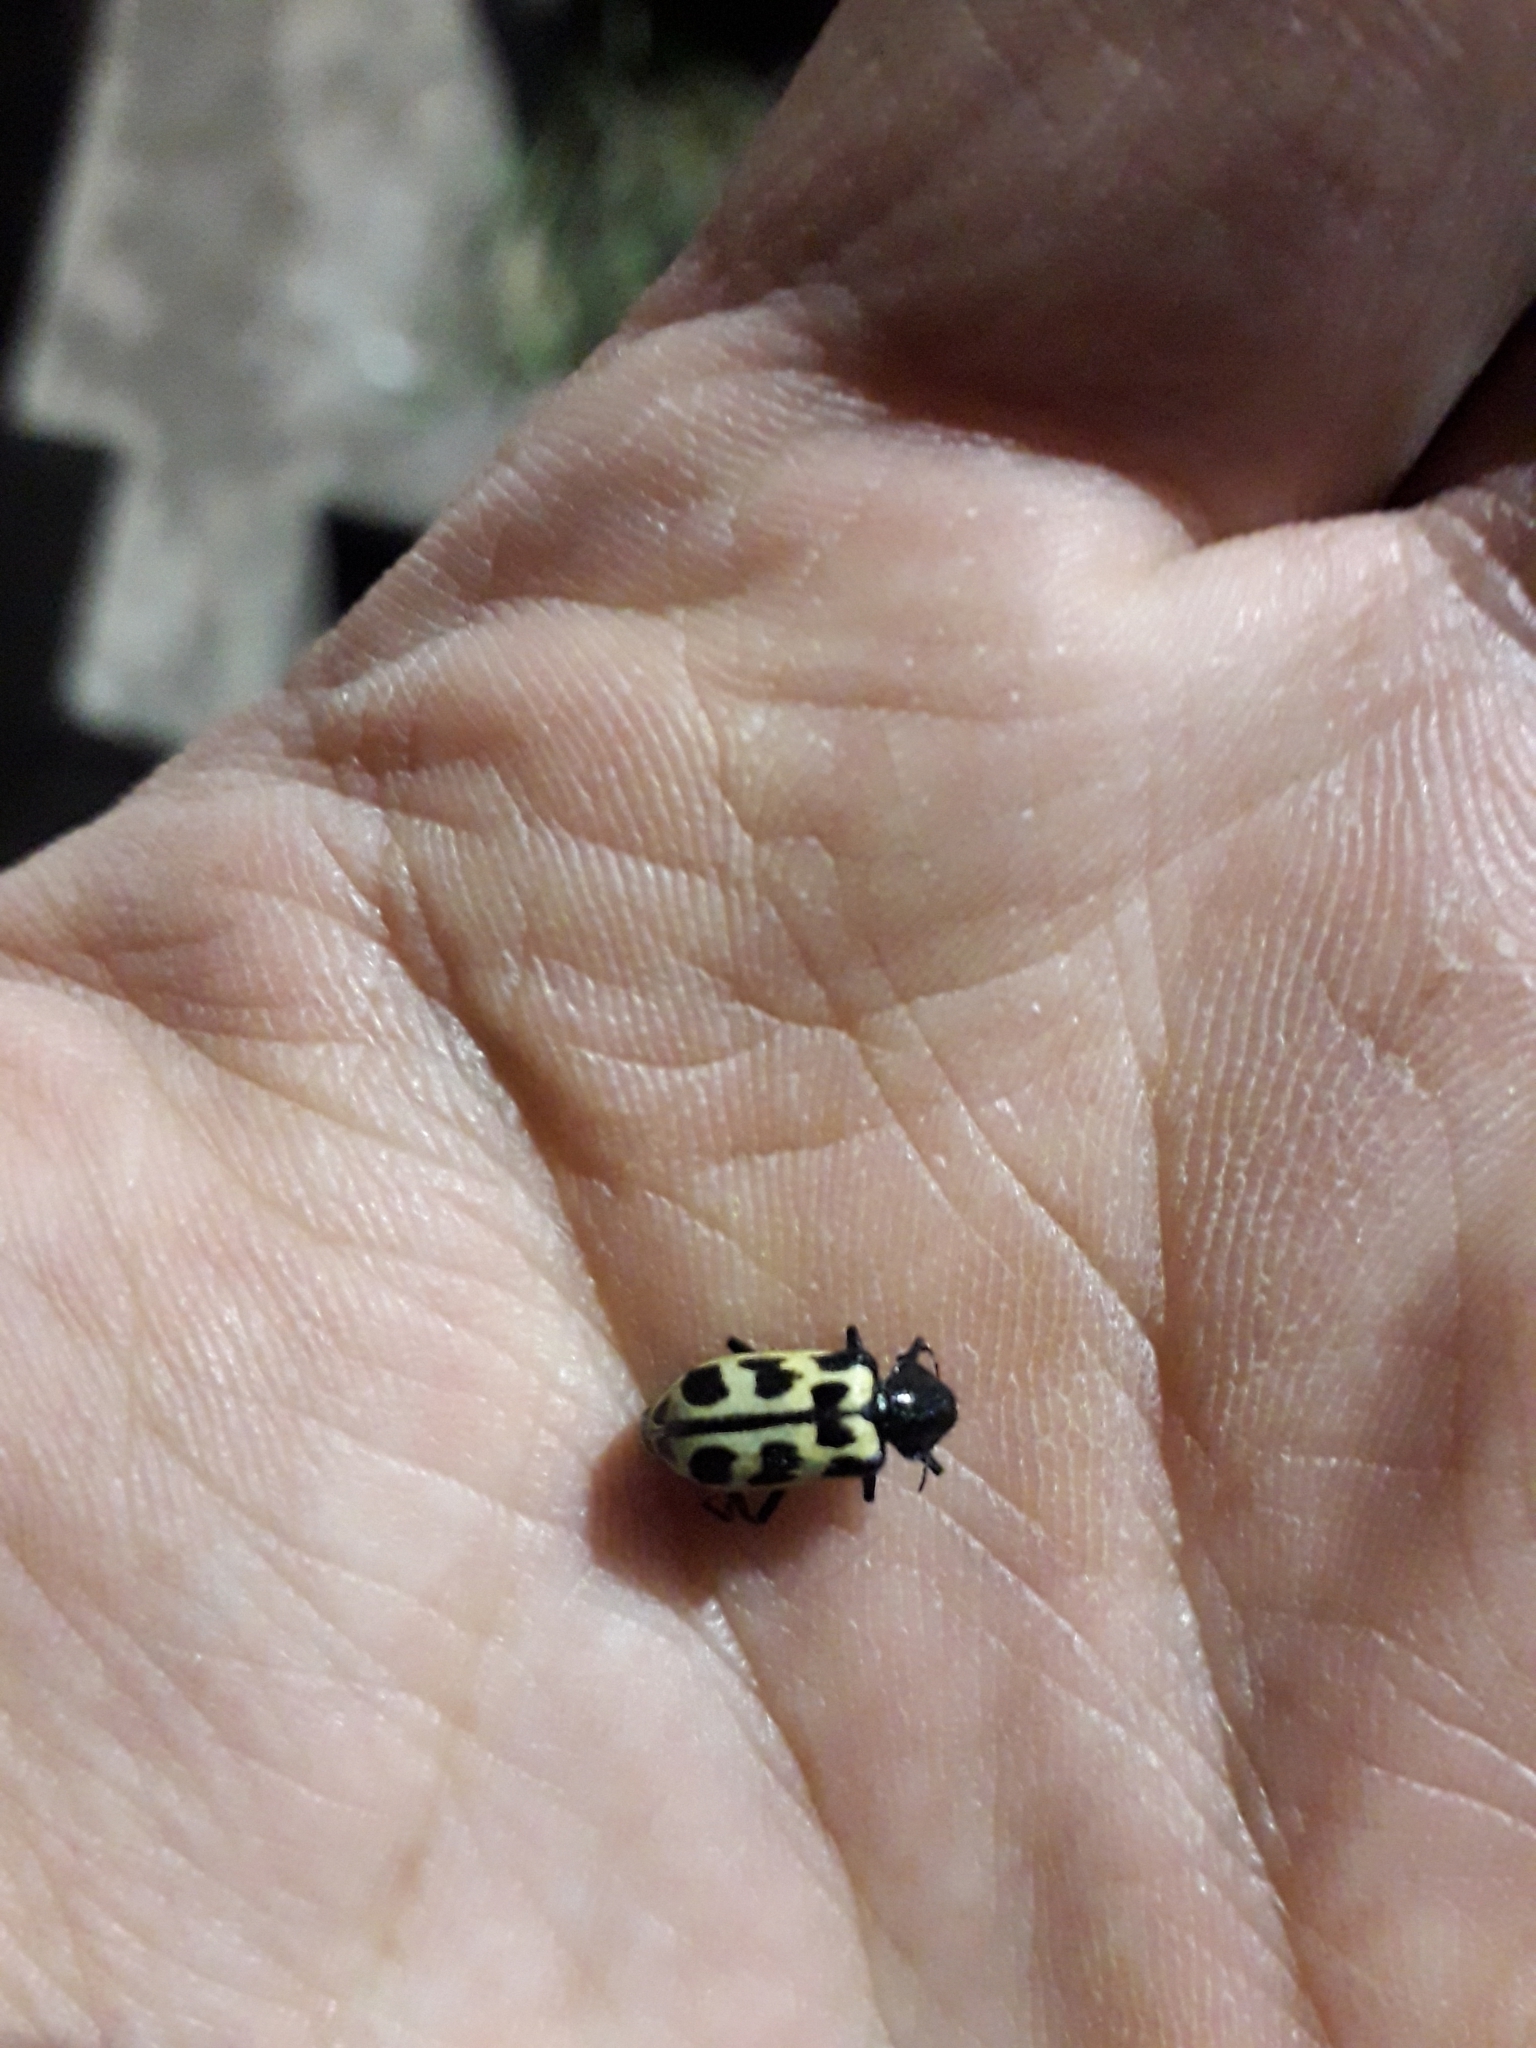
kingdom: Animalia
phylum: Arthropoda
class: Insecta
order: Coleoptera
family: Melyridae
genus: Astylus
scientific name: Astylus atromaculatus
